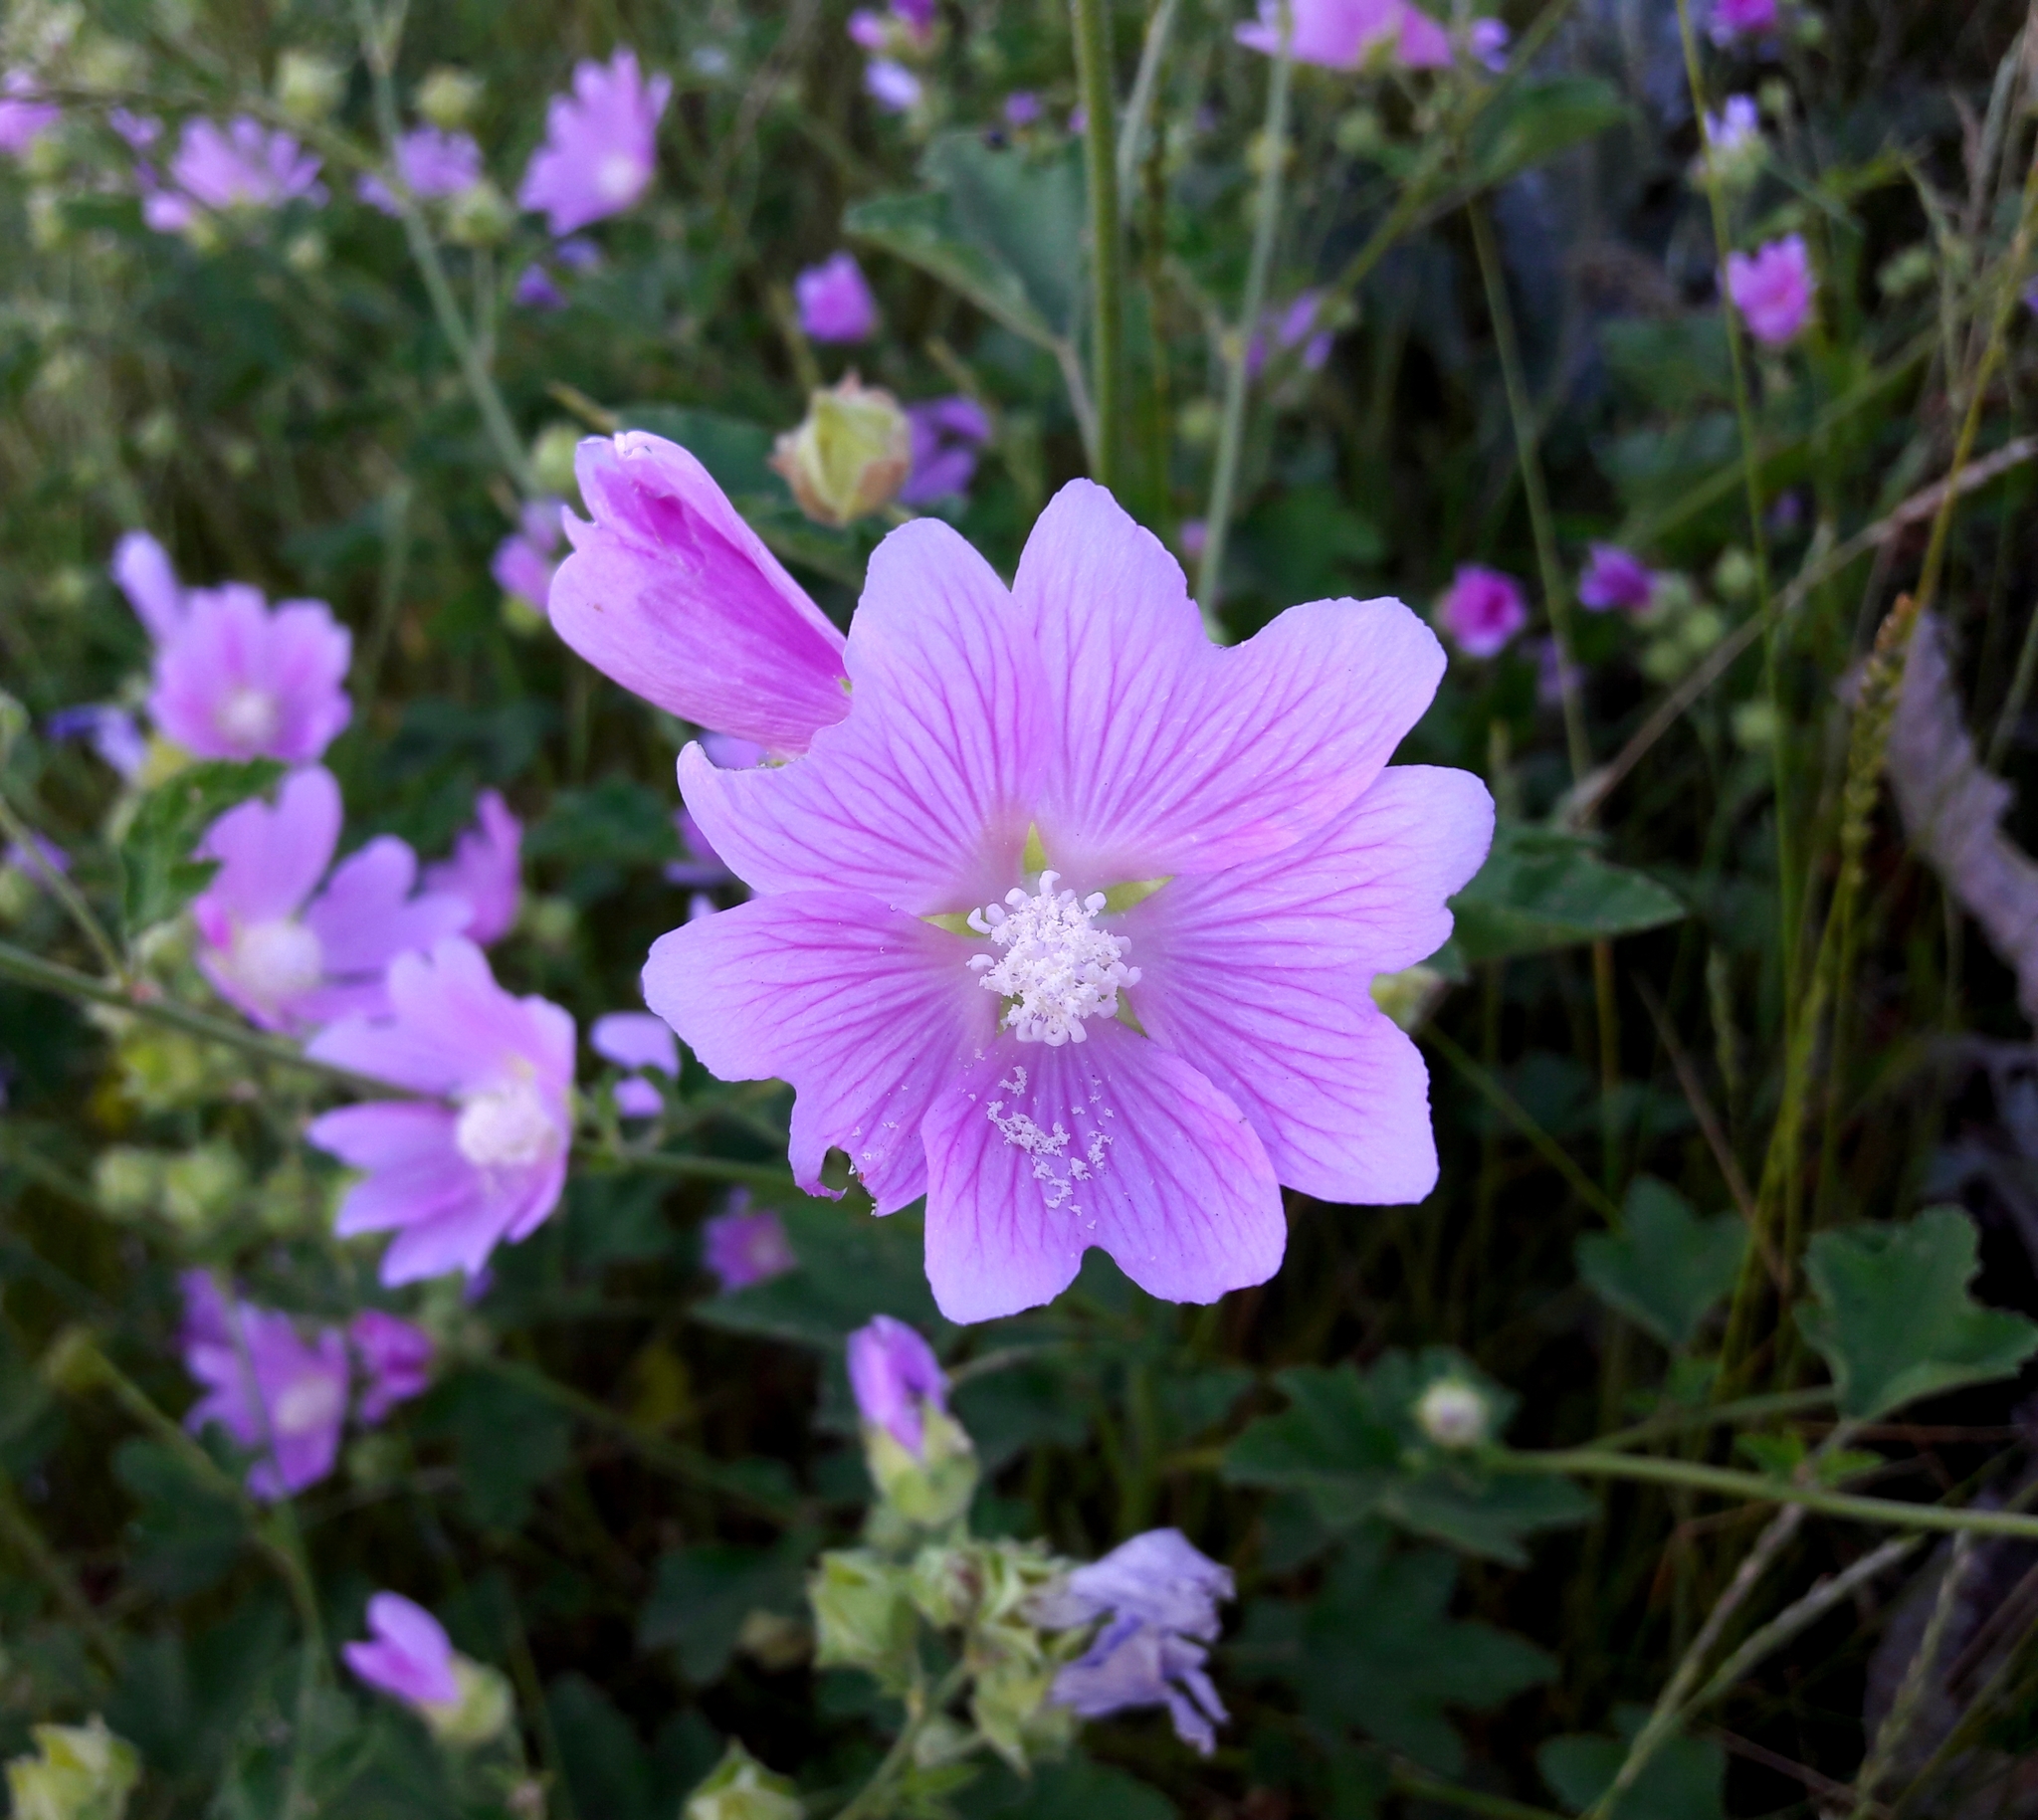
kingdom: Plantae
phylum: Tracheophyta
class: Magnoliopsida
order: Malvales
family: Malvaceae
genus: Malva
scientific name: Malva thuringiaca
